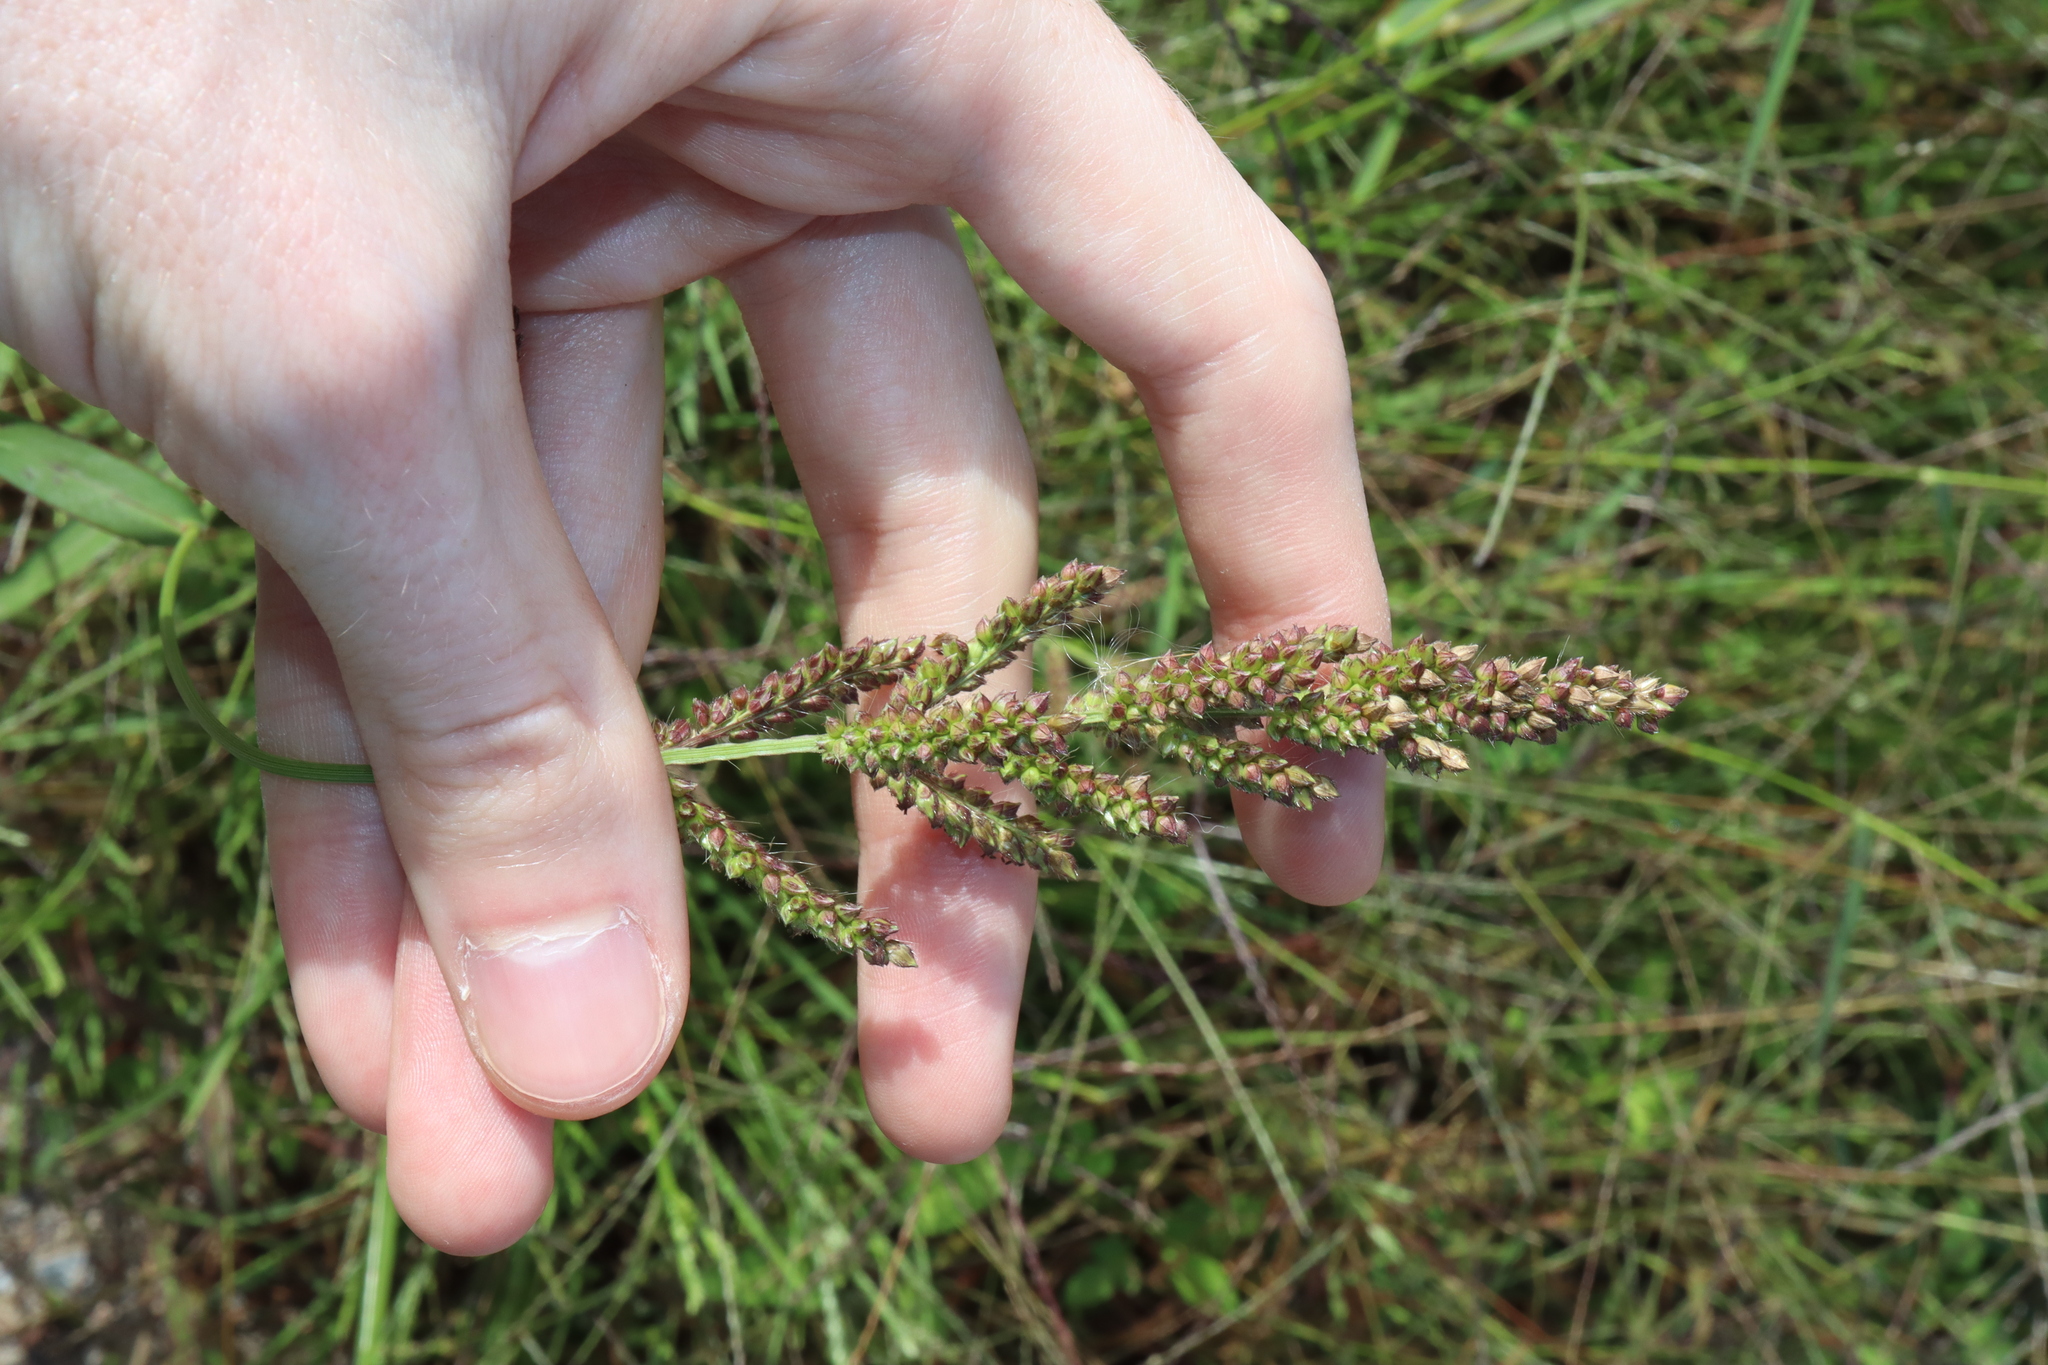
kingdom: Plantae
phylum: Tracheophyta
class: Liliopsida
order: Poales
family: Poaceae
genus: Echinochloa
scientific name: Echinochloa crus-galli
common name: Cockspur
